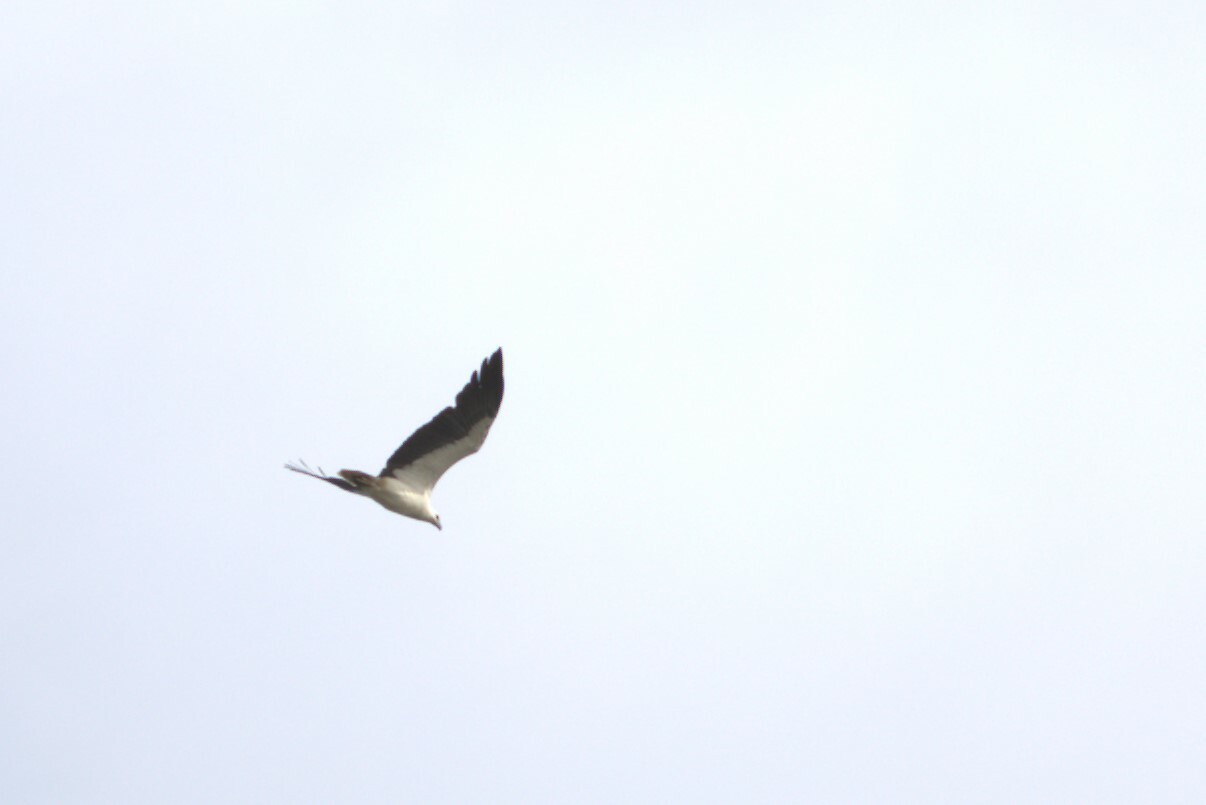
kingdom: Animalia
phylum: Chordata
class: Aves
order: Accipitriformes
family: Accipitridae
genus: Haliaeetus
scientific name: Haliaeetus leucogaster
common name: White-bellied sea eagle
